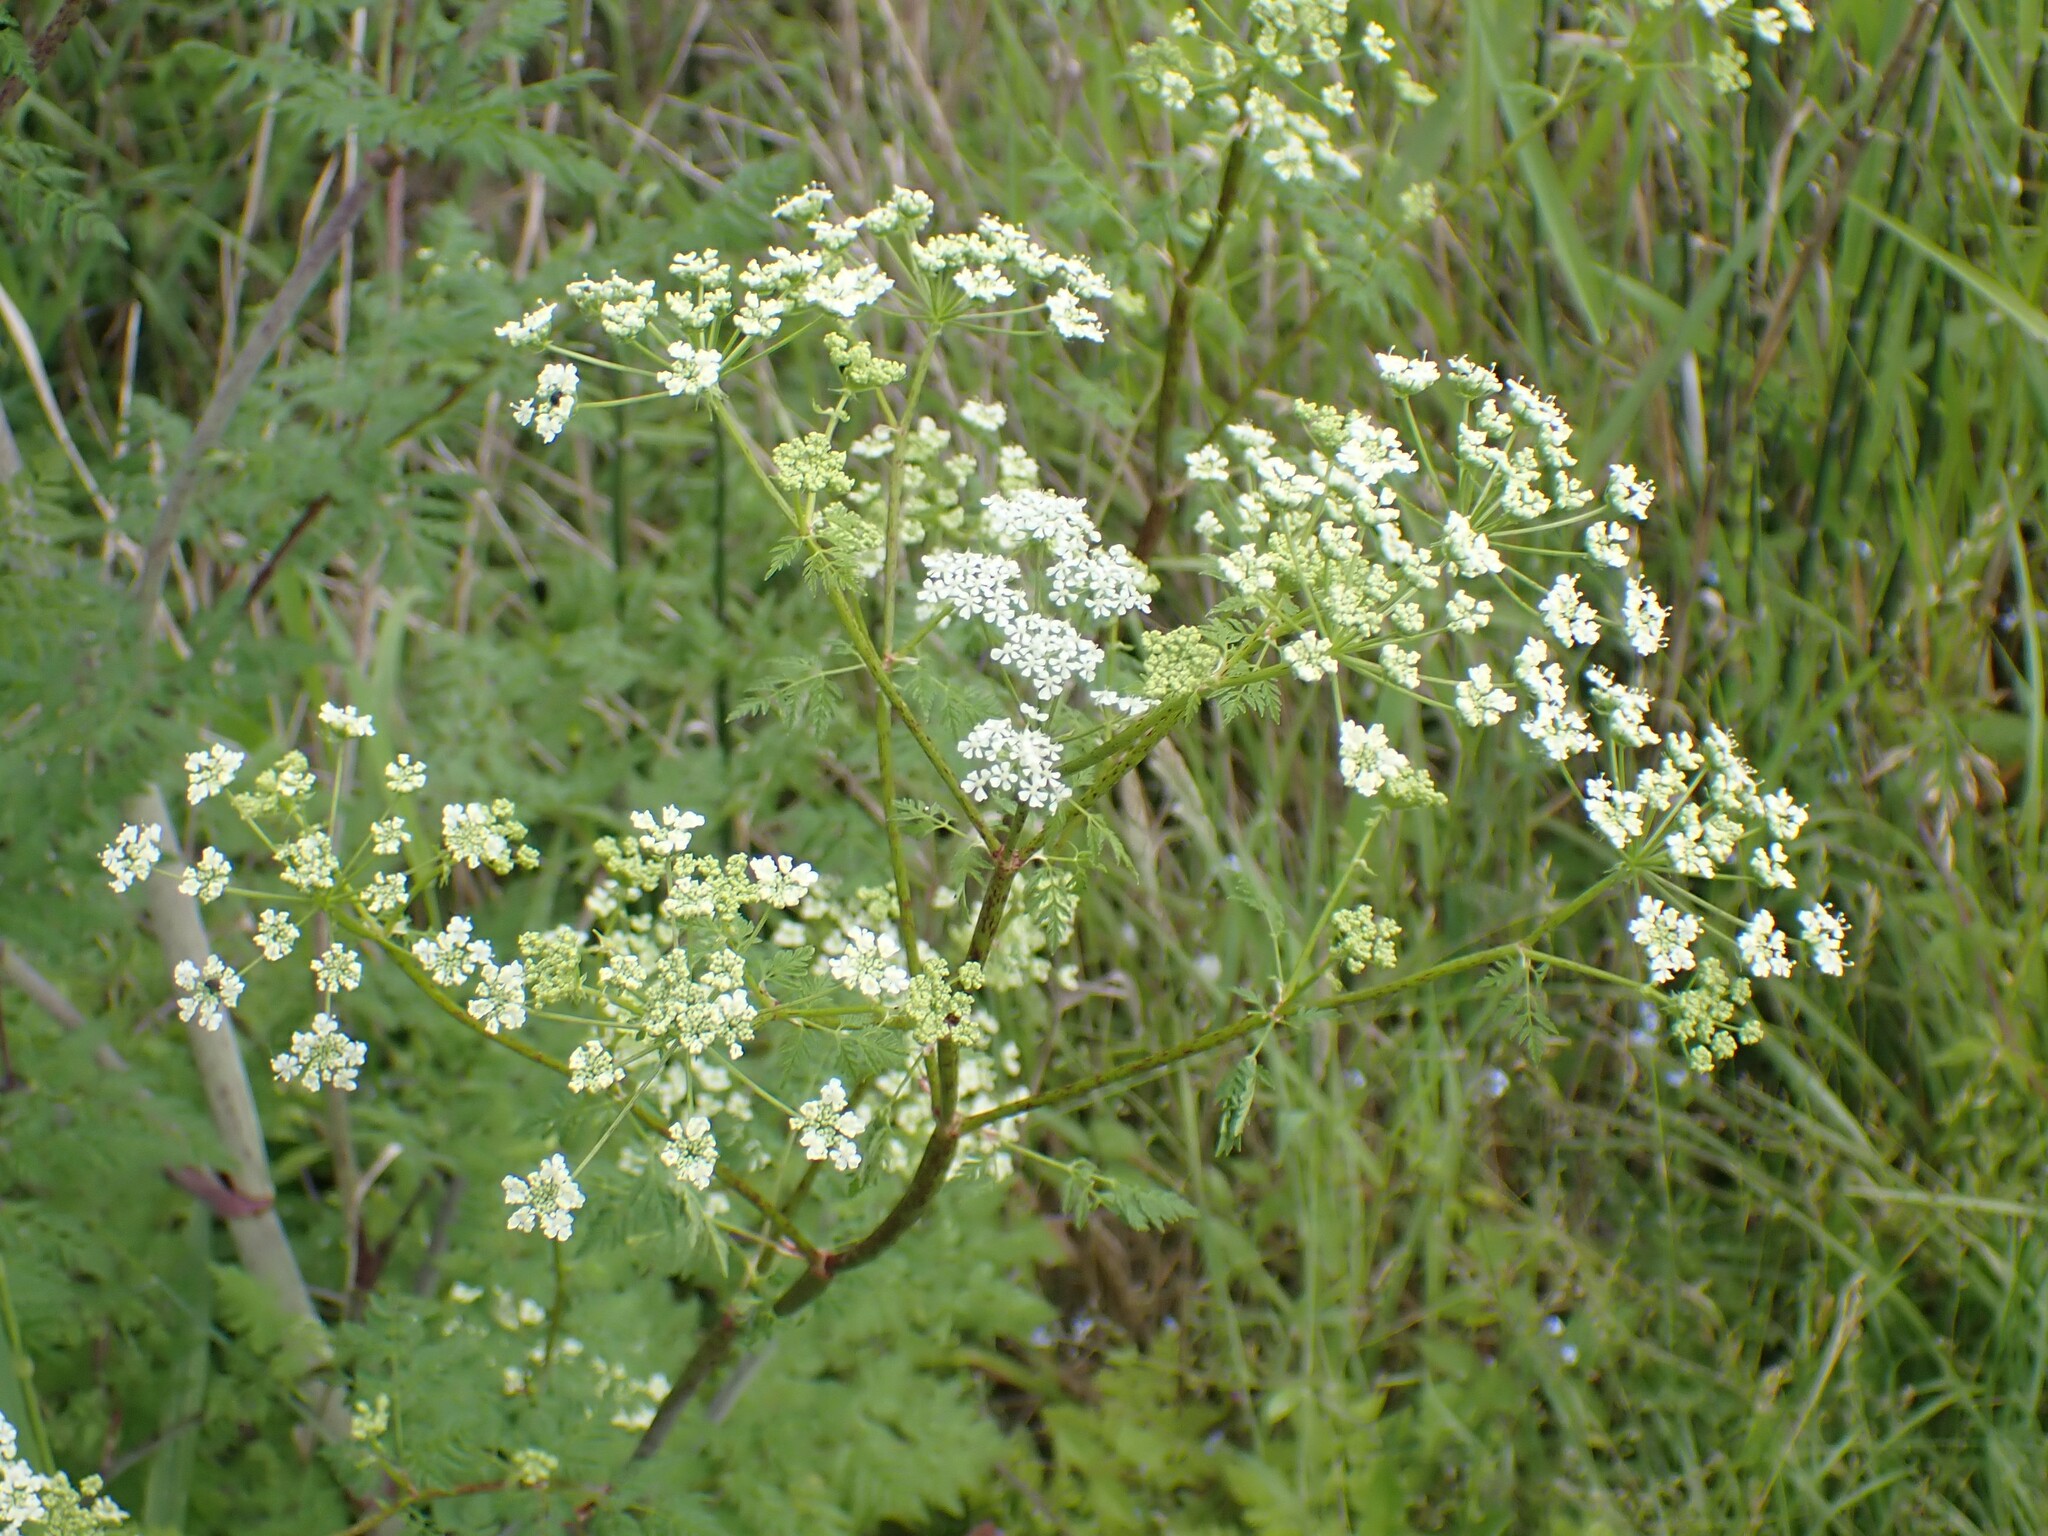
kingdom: Plantae
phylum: Tracheophyta
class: Magnoliopsida
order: Apiales
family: Apiaceae
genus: Conium
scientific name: Conium maculatum
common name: Hemlock
